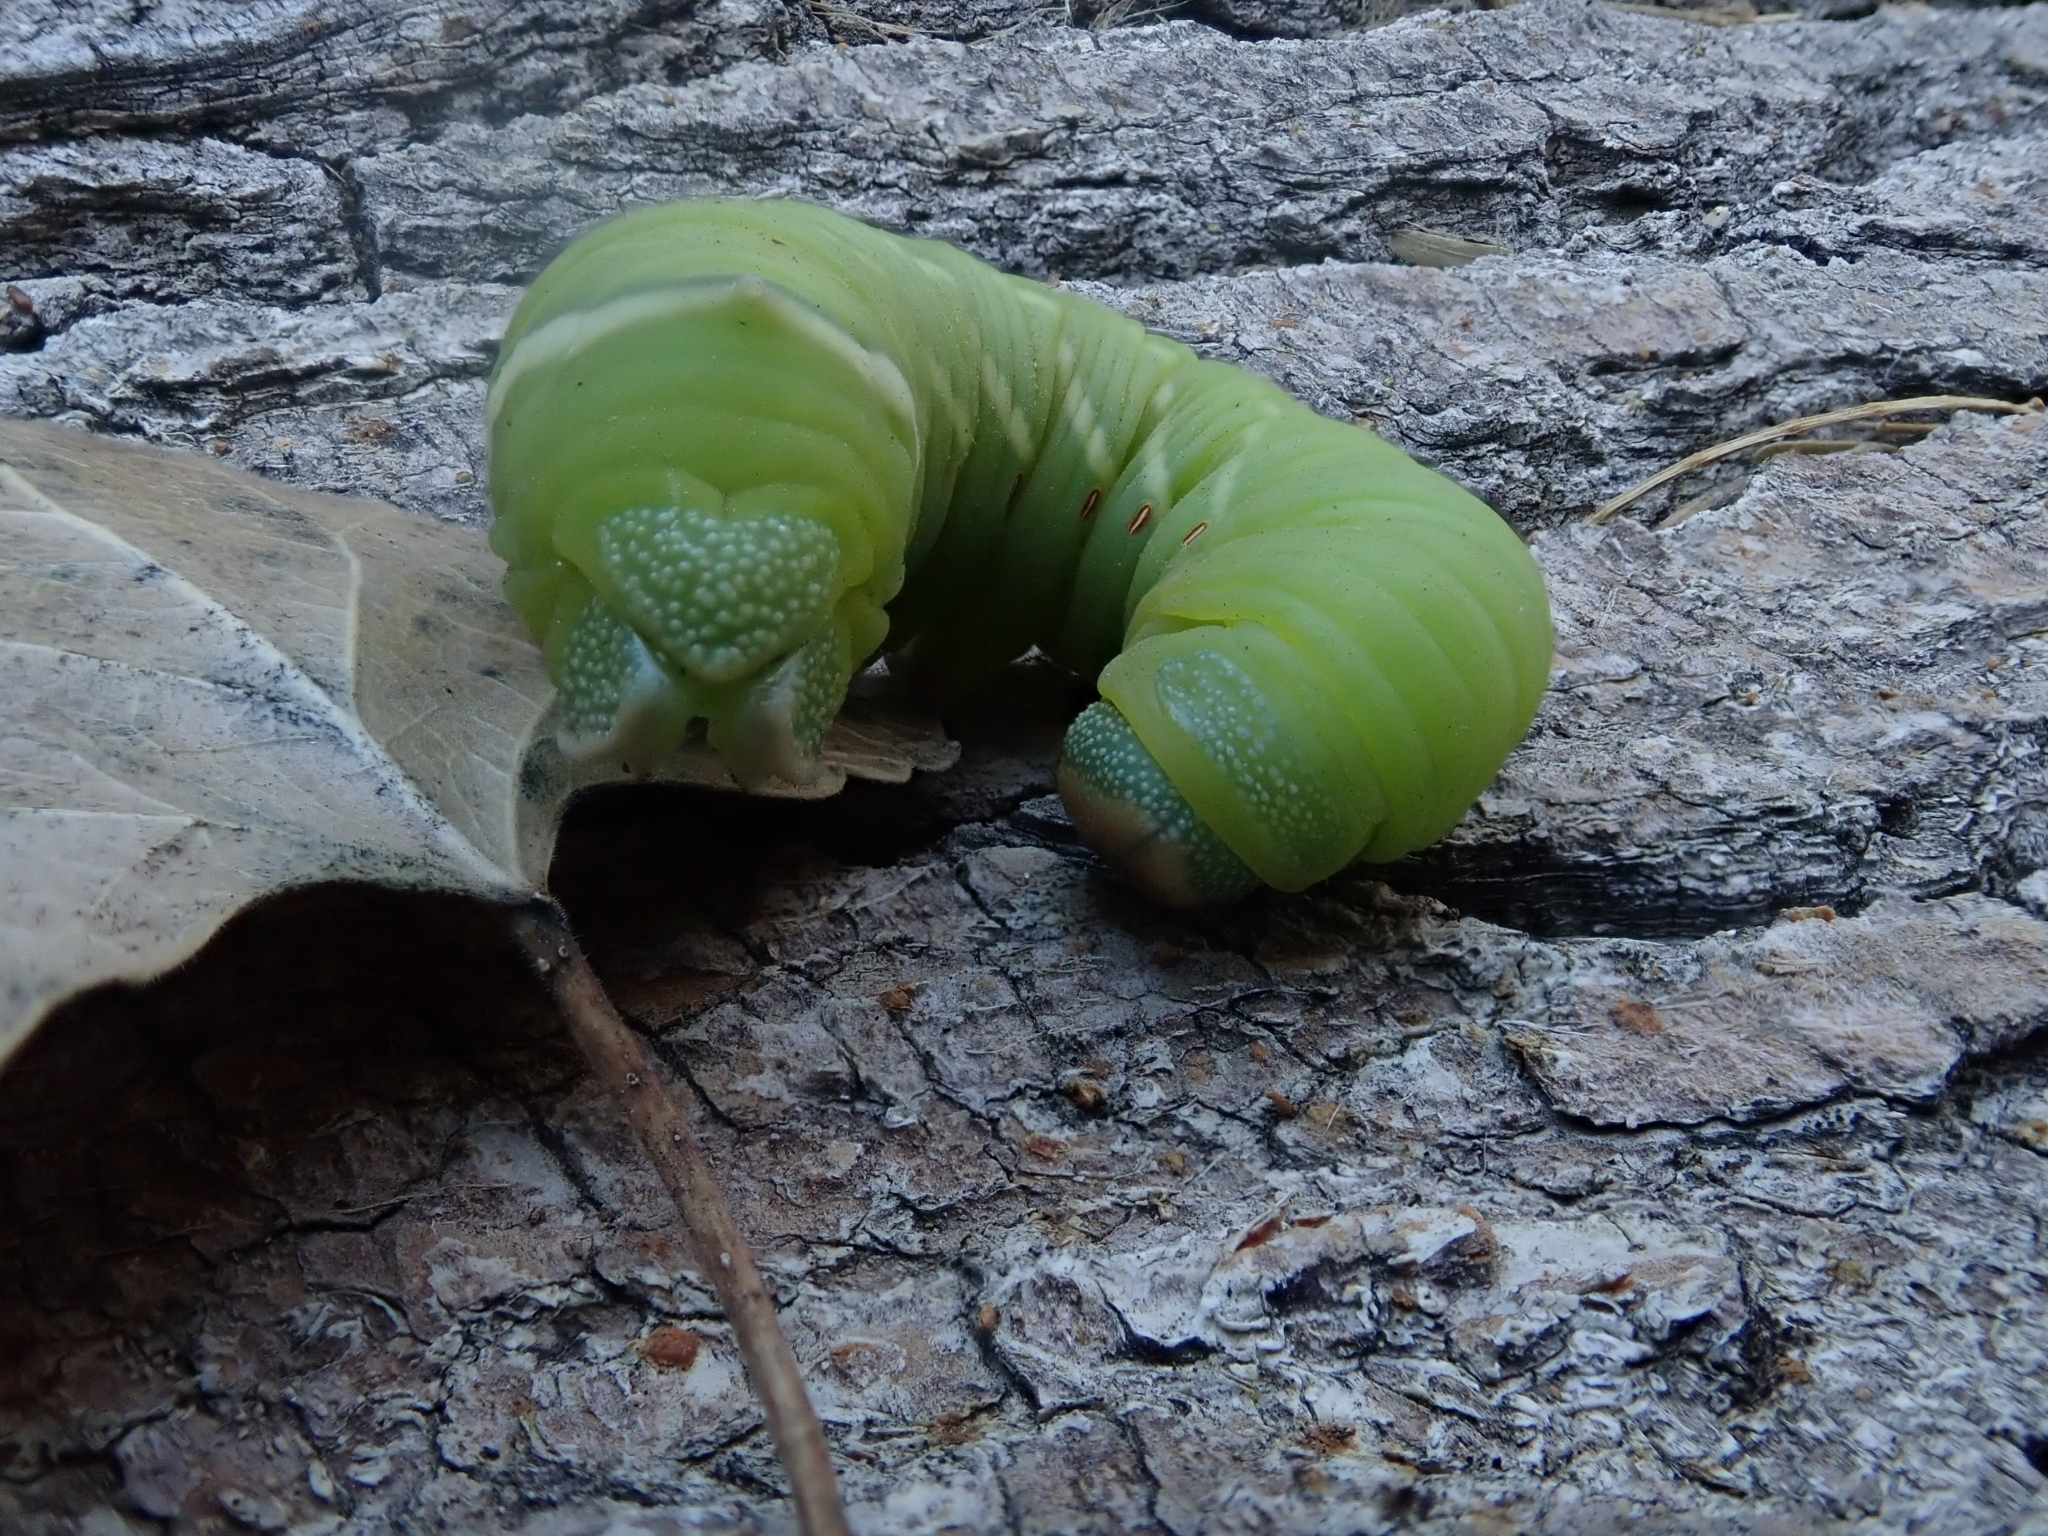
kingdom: Animalia
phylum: Arthropoda
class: Insecta
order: Lepidoptera
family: Sphingidae
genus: Pachysphinx
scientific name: Pachysphinx occidentalis
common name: Western poplar sphinx
